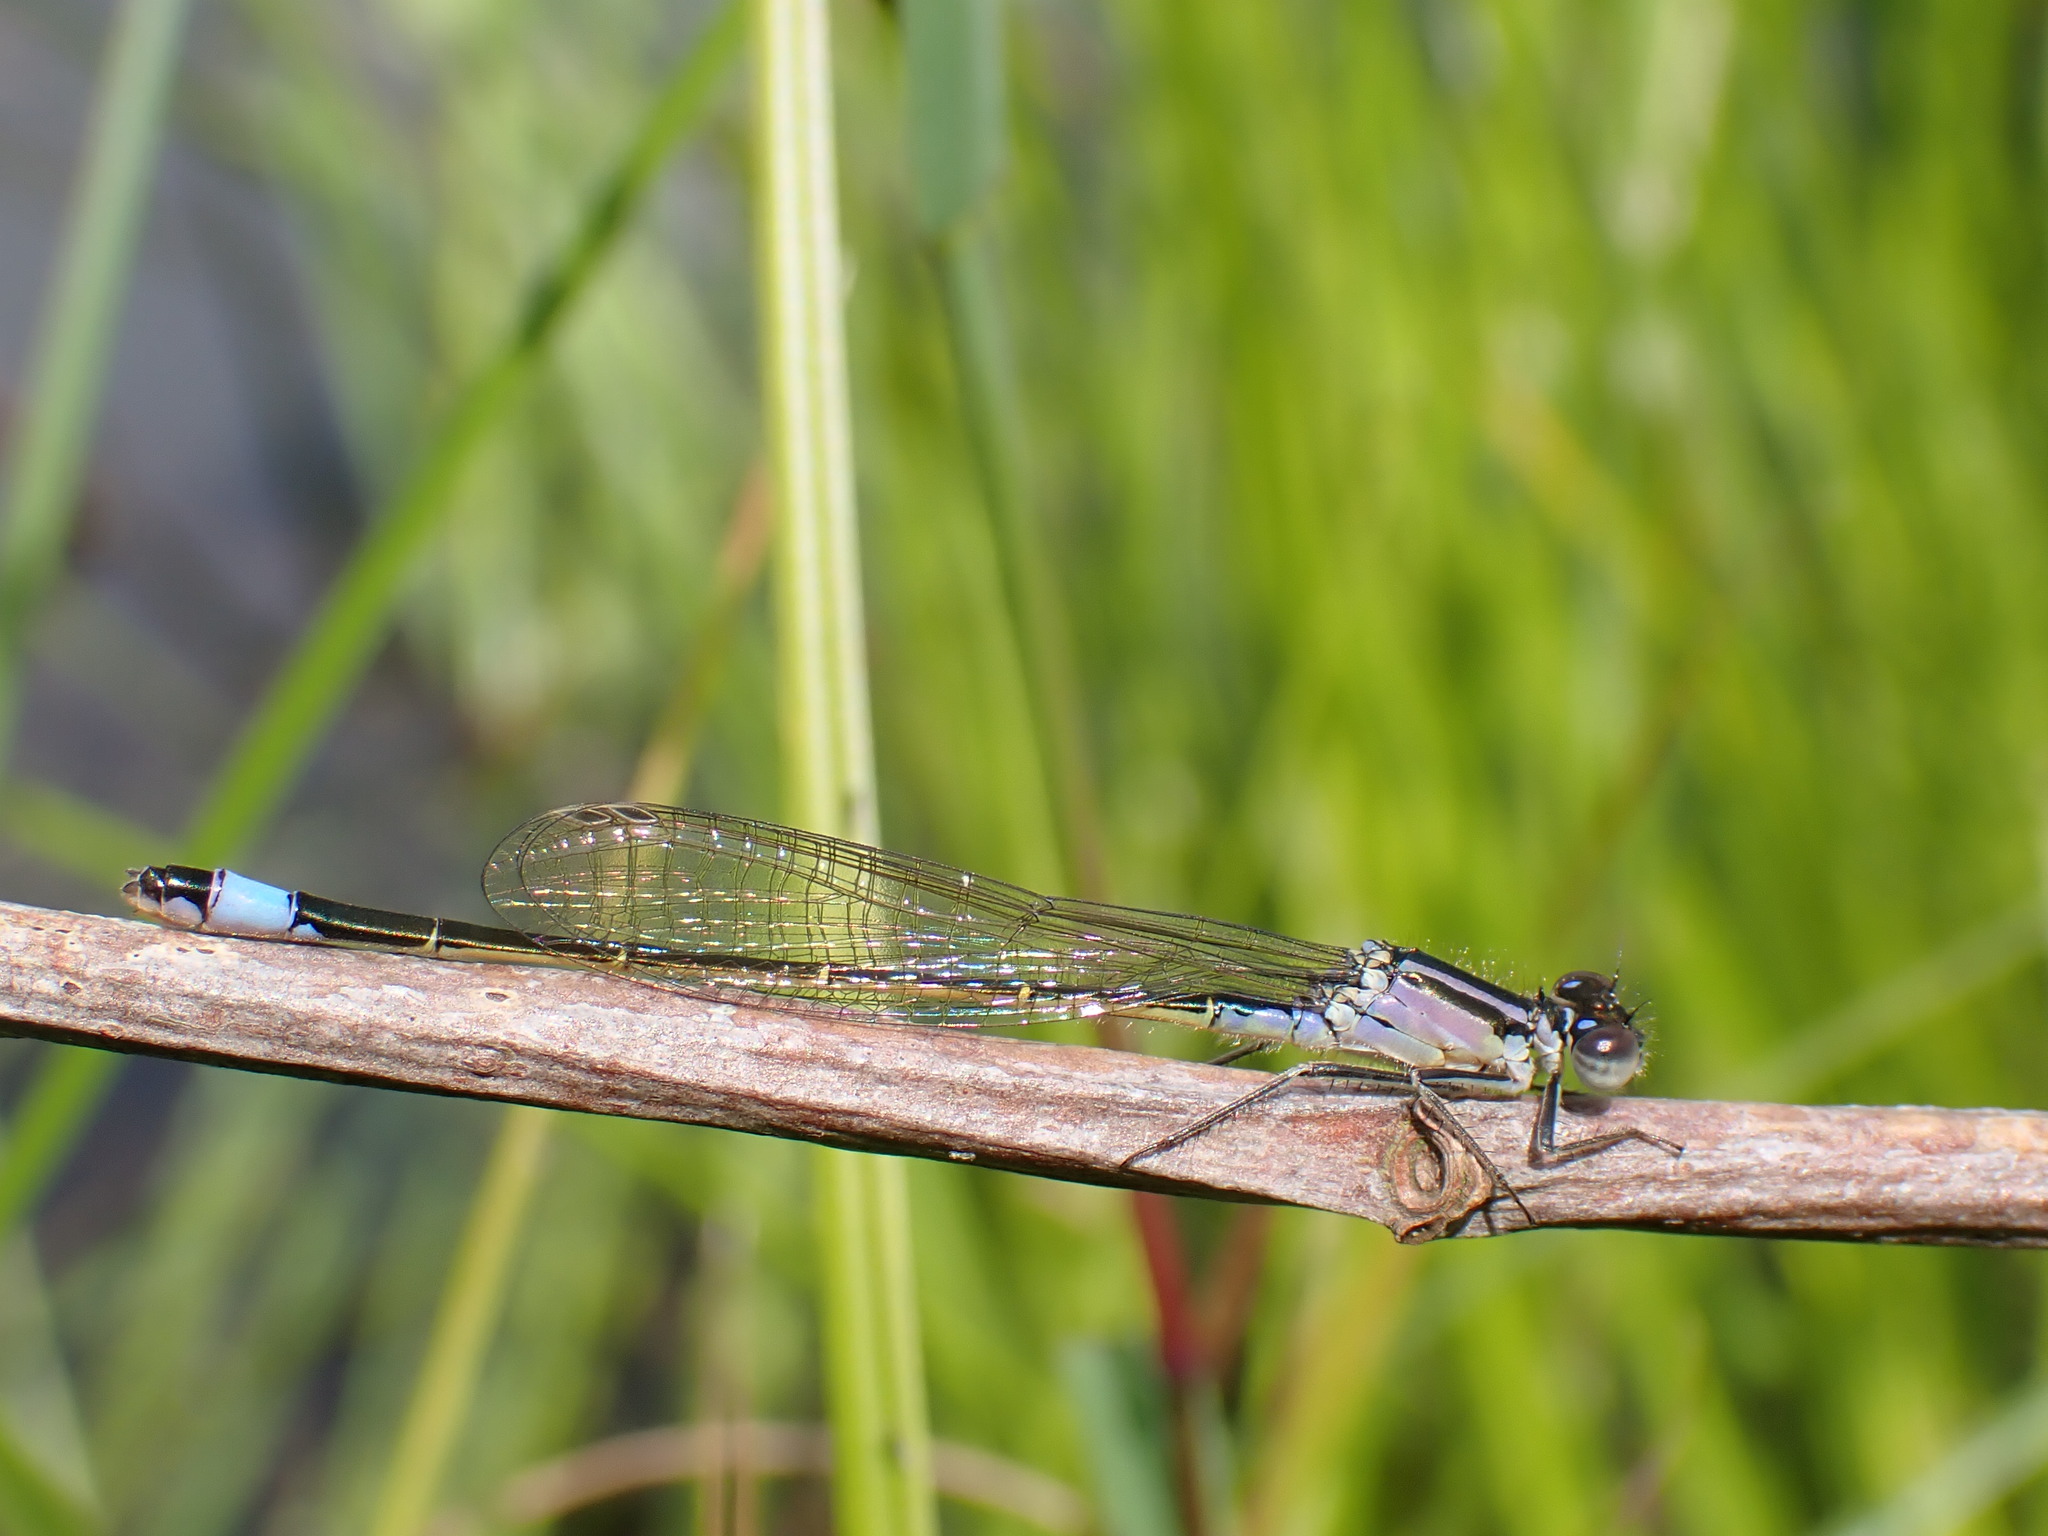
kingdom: Animalia
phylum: Arthropoda
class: Insecta
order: Odonata
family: Coenagrionidae
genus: Ischnura
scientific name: Ischnura elegans
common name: Blue-tailed damselfly
